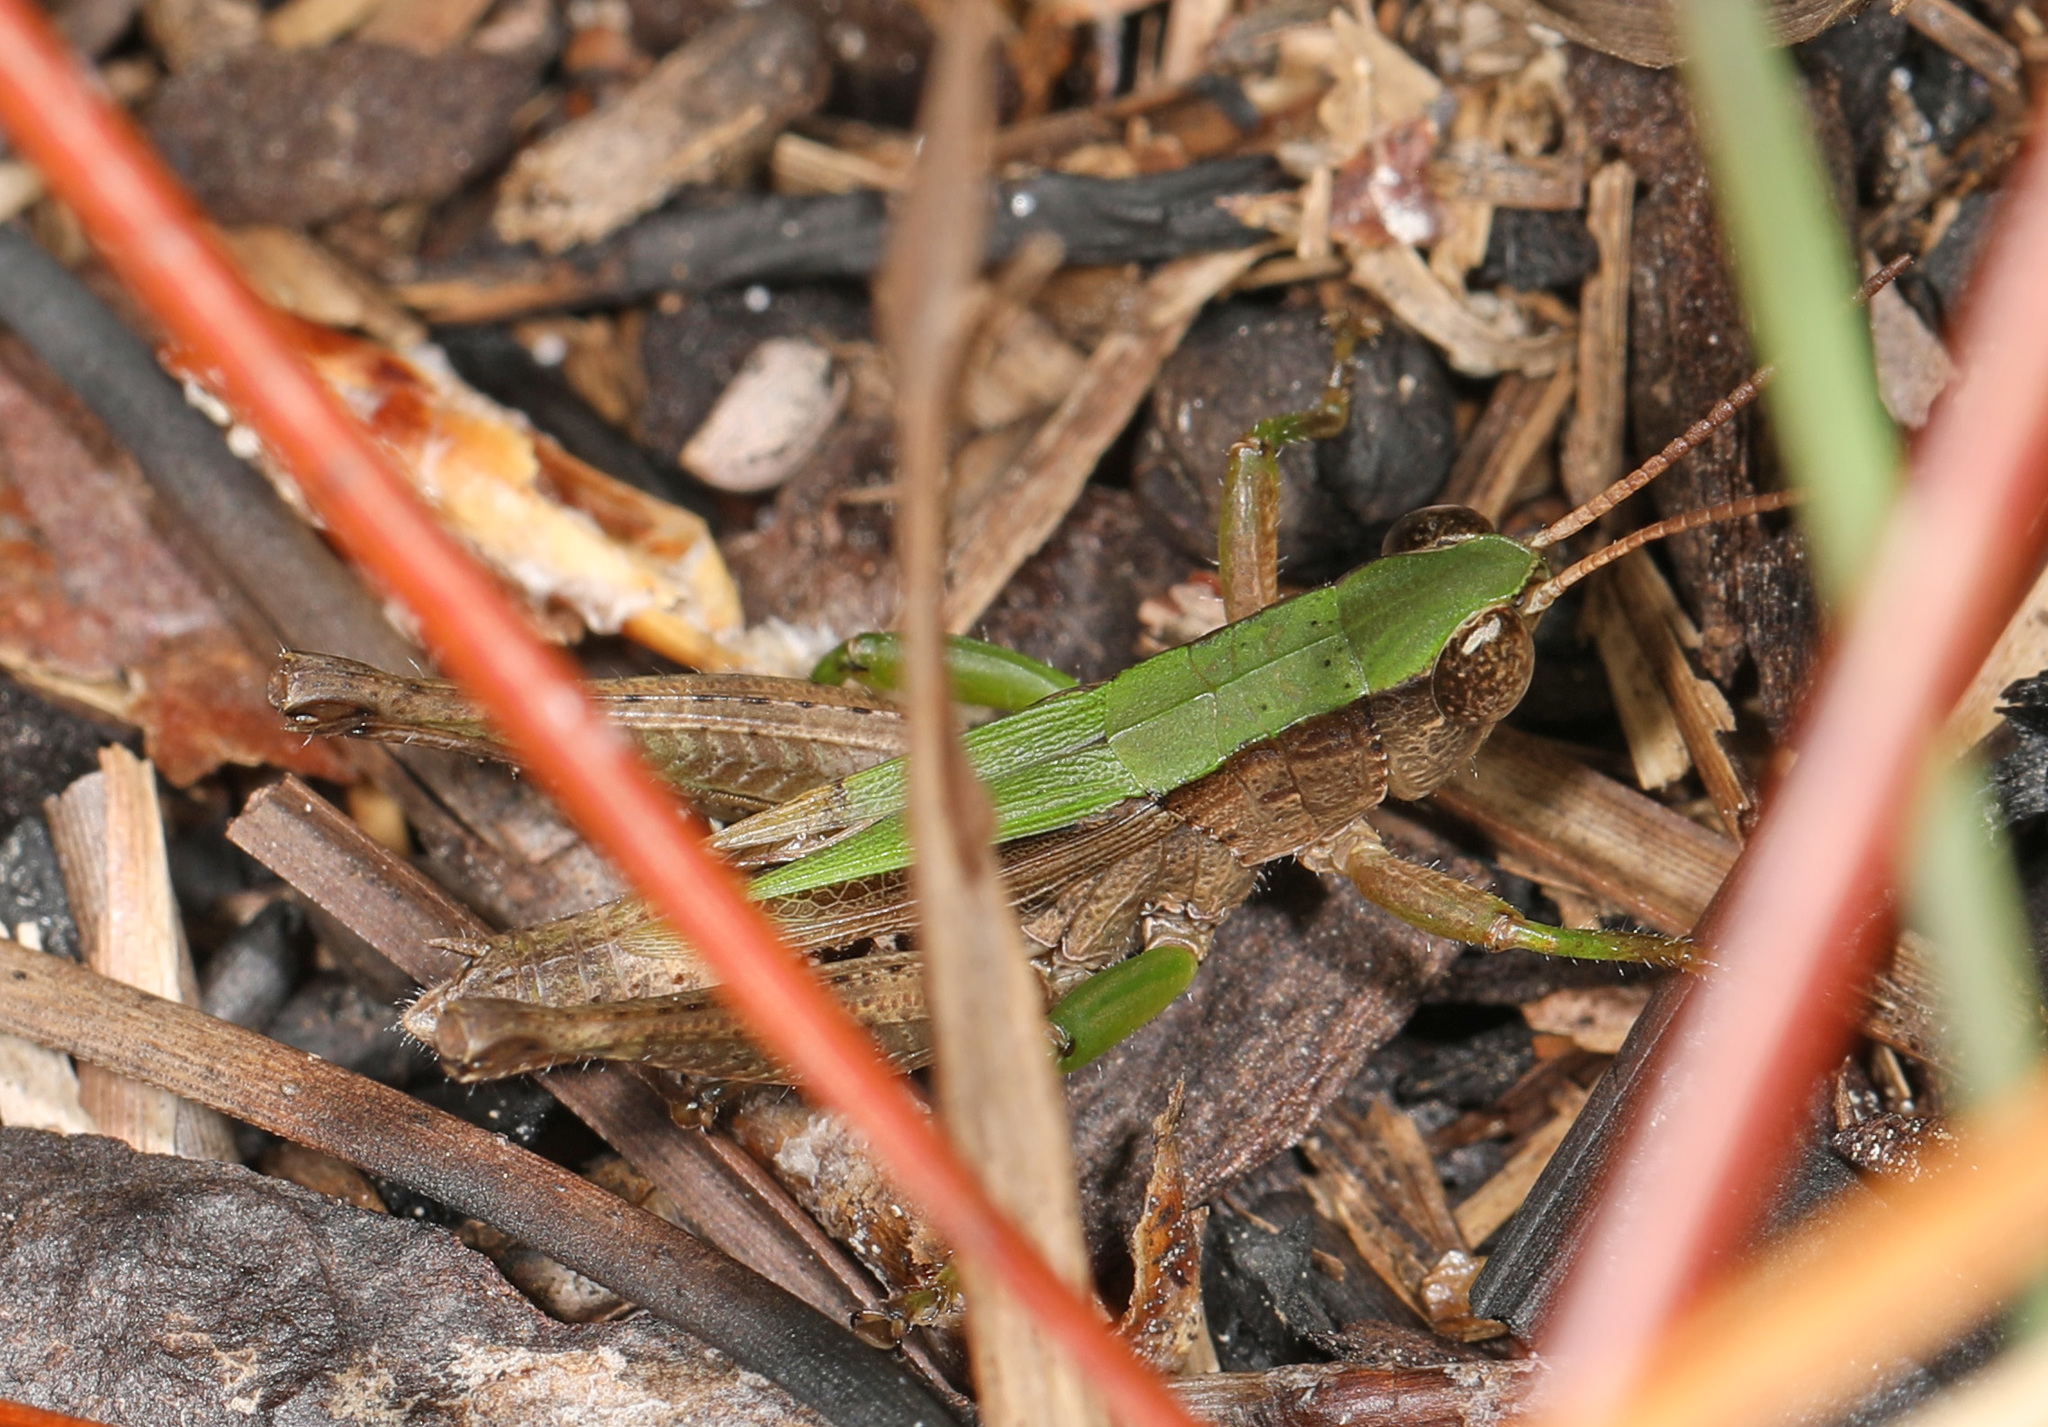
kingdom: Animalia
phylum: Arthropoda
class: Insecta
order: Orthoptera
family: Acrididae
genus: Dichromorpha
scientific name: Dichromorpha viridis
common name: Short-winged green grasshopper
